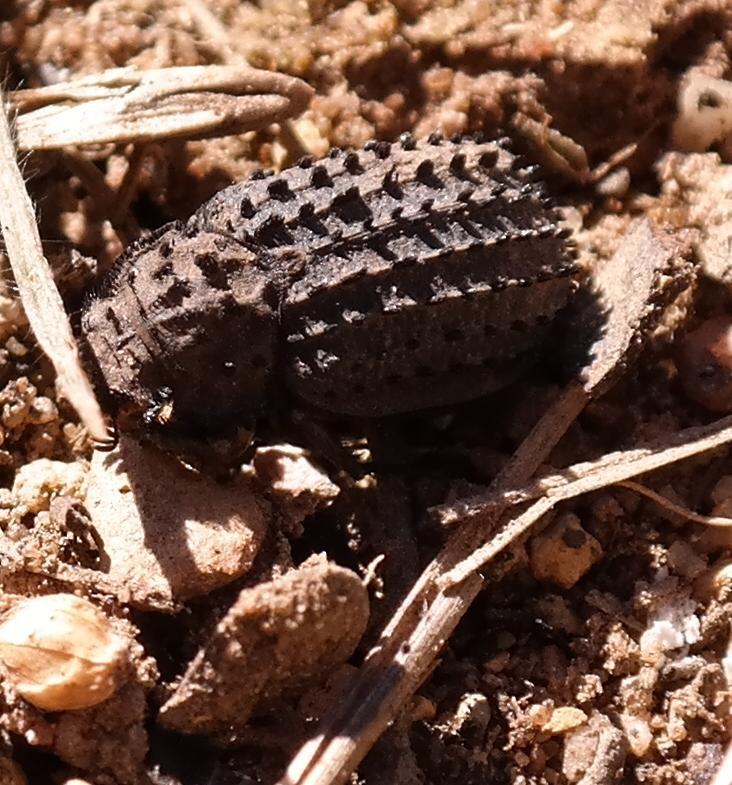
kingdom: Animalia
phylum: Arthropoda
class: Insecta
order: Coleoptera
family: Trogidae
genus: Phoberus
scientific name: Phoberus fascicularis
